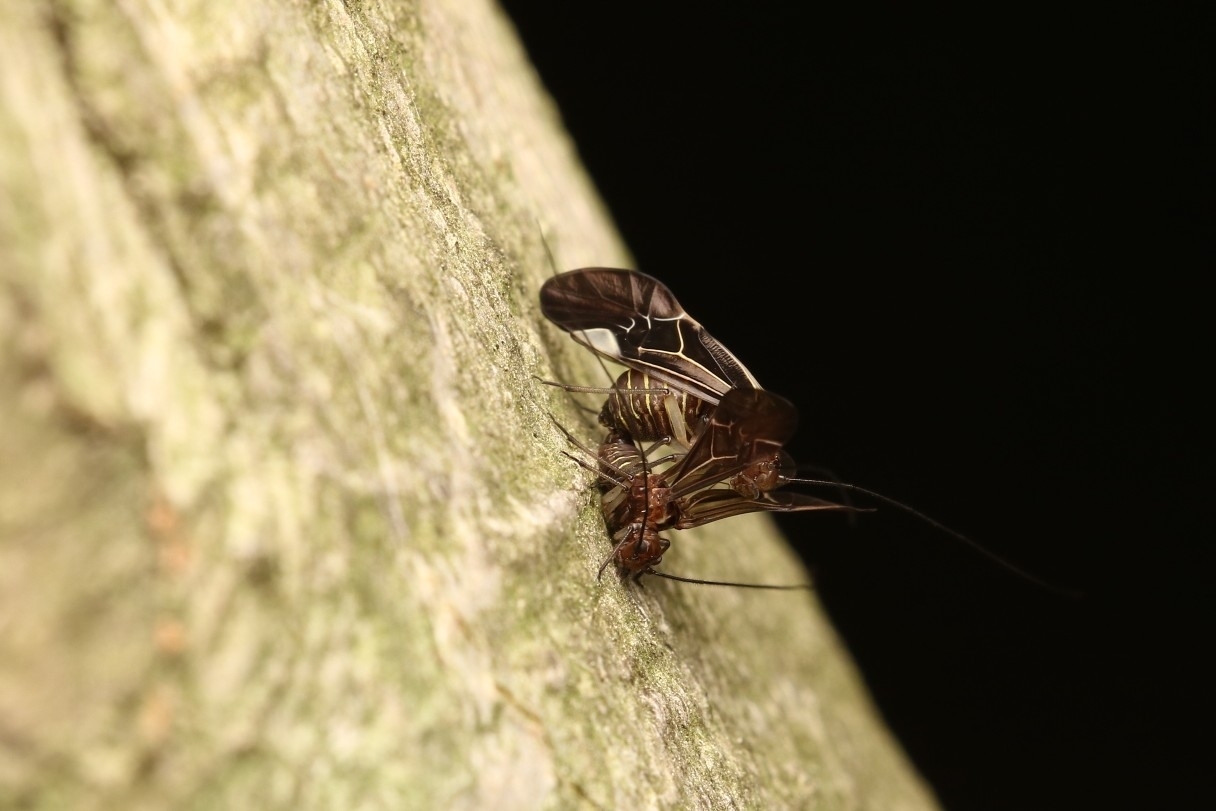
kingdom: Animalia
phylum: Arthropoda
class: Insecta
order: Psocodea
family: Psocidae
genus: Cerastipsocus
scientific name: Cerastipsocus venosus
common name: Tree cattle
